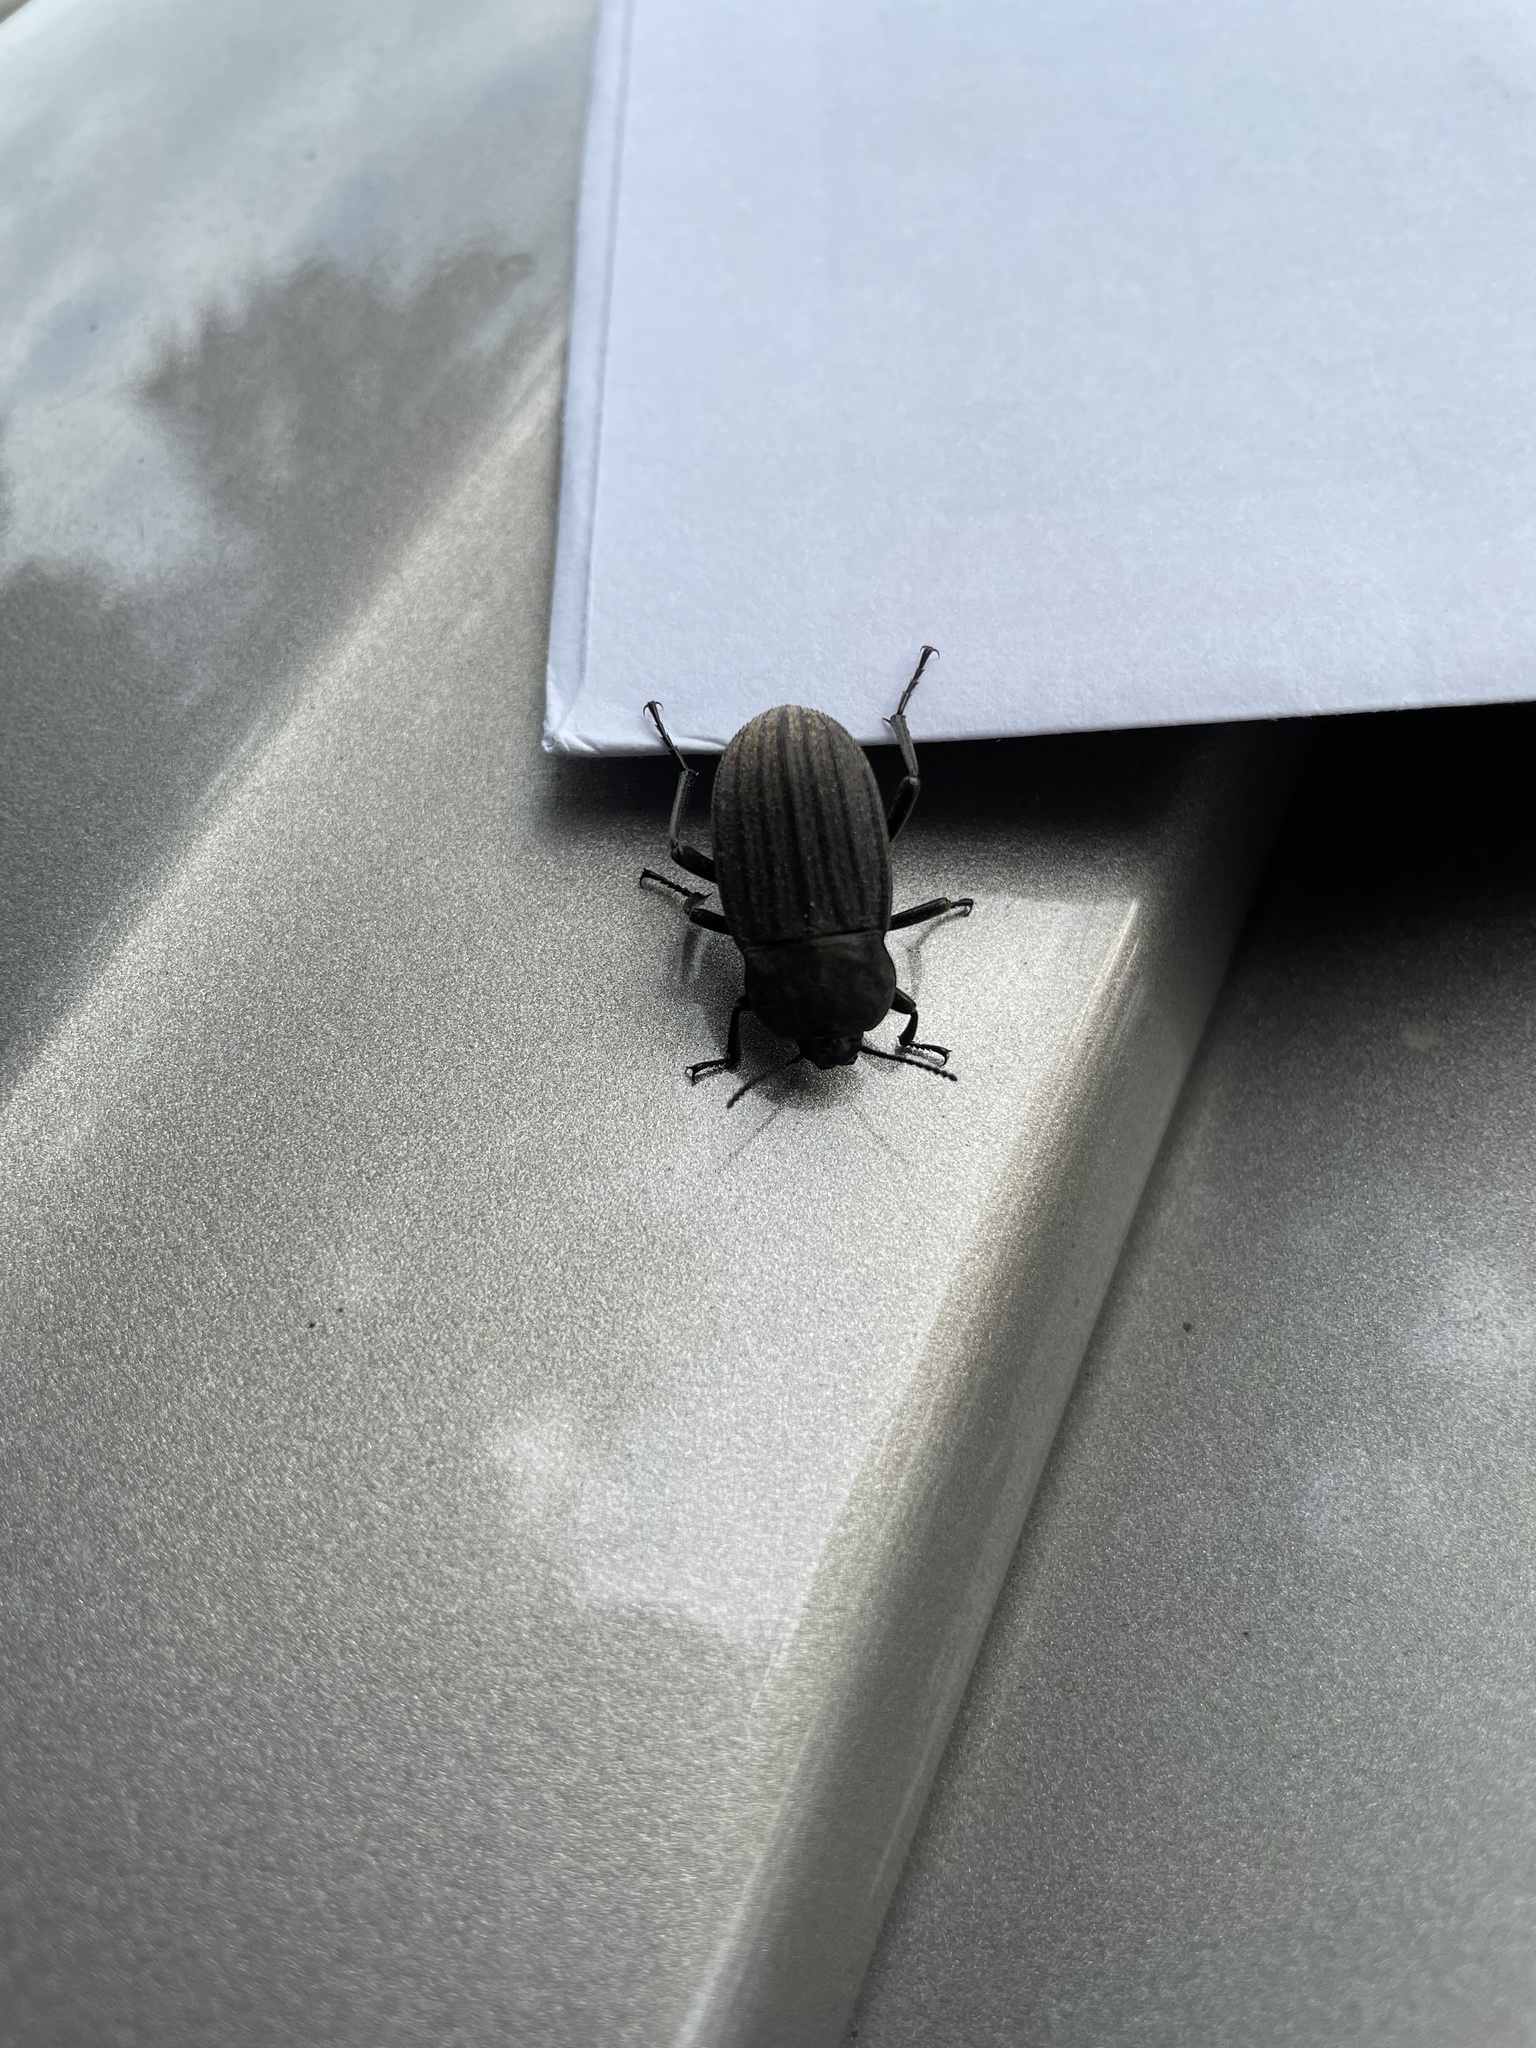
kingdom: Animalia
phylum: Arthropoda
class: Insecta
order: Coleoptera
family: Tenebrionidae
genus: Eleodes
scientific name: Eleodes tricostata
